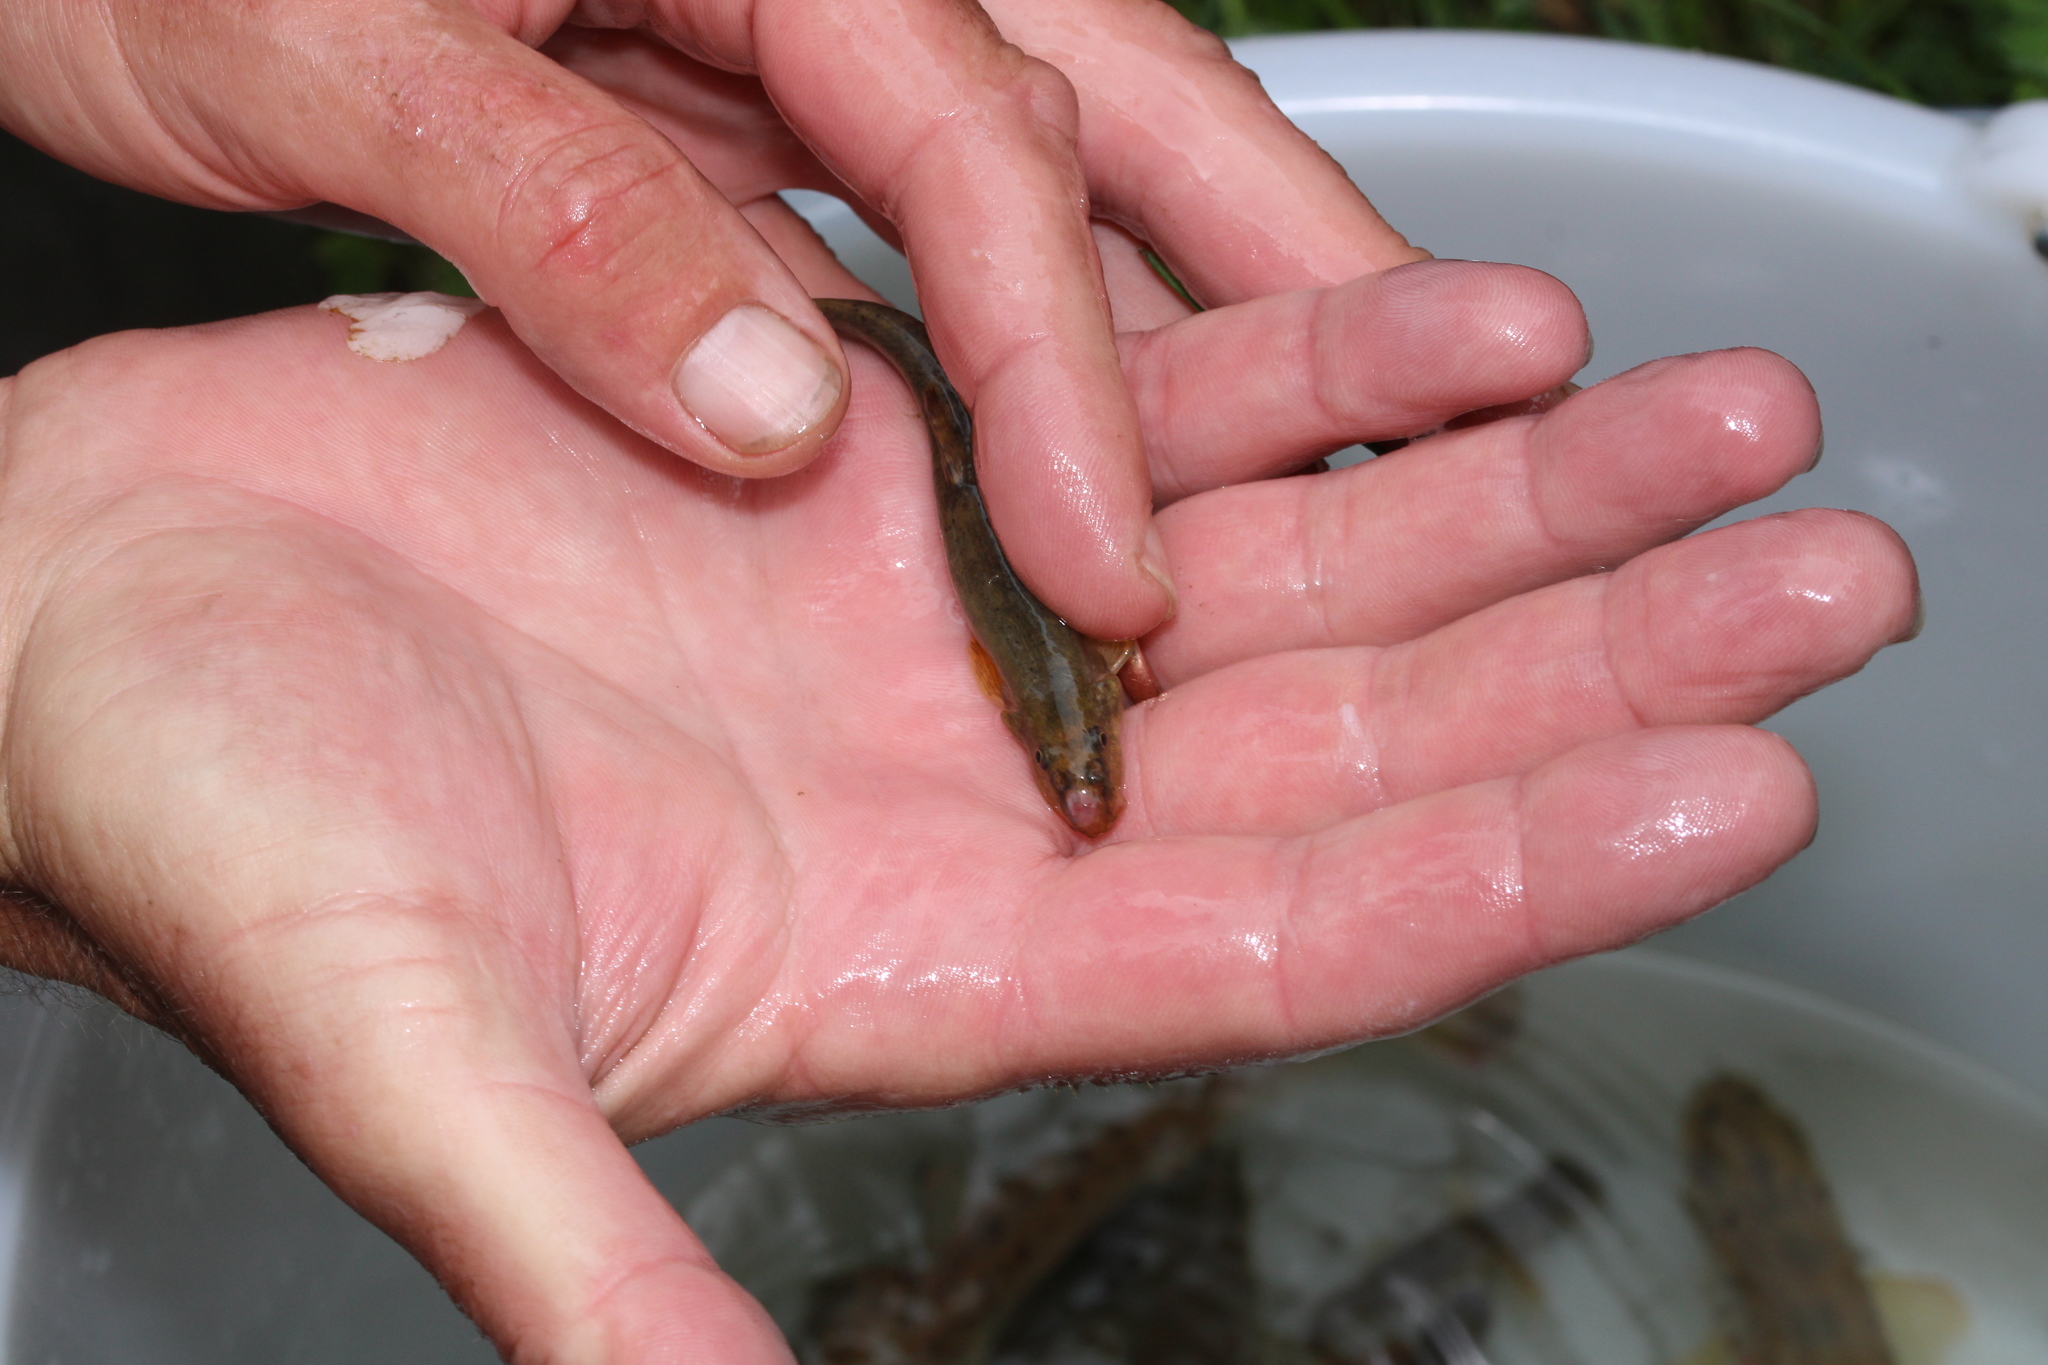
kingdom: Animalia
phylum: Chordata
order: Cypriniformes
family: Nemacheilidae
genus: Barbatula
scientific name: Barbatula barbatula
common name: Stone loach
